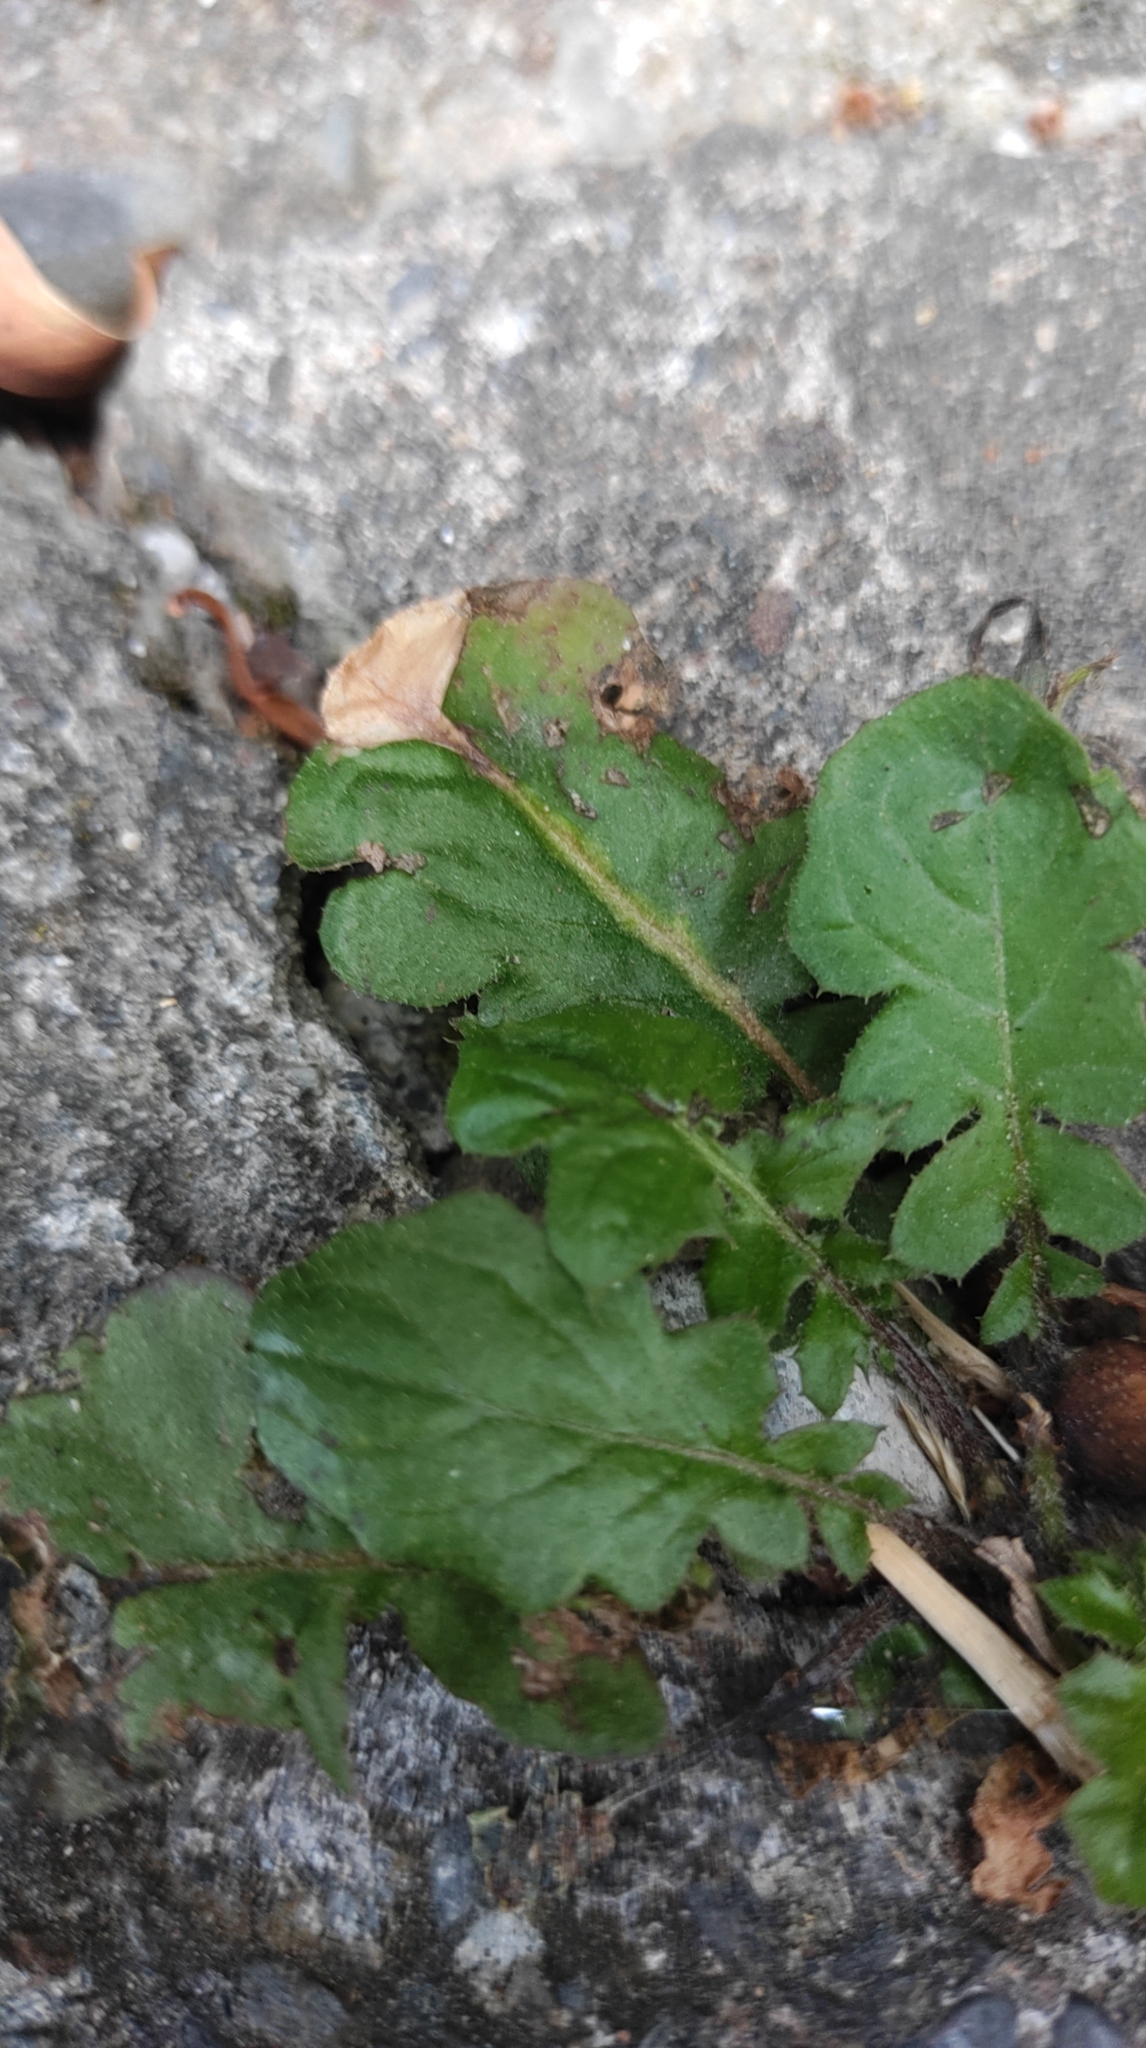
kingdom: Plantae
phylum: Tracheophyta
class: Magnoliopsida
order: Asterales
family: Asteraceae
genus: Youngia
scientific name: Youngia japonica
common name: Oriental false hawksbeard
